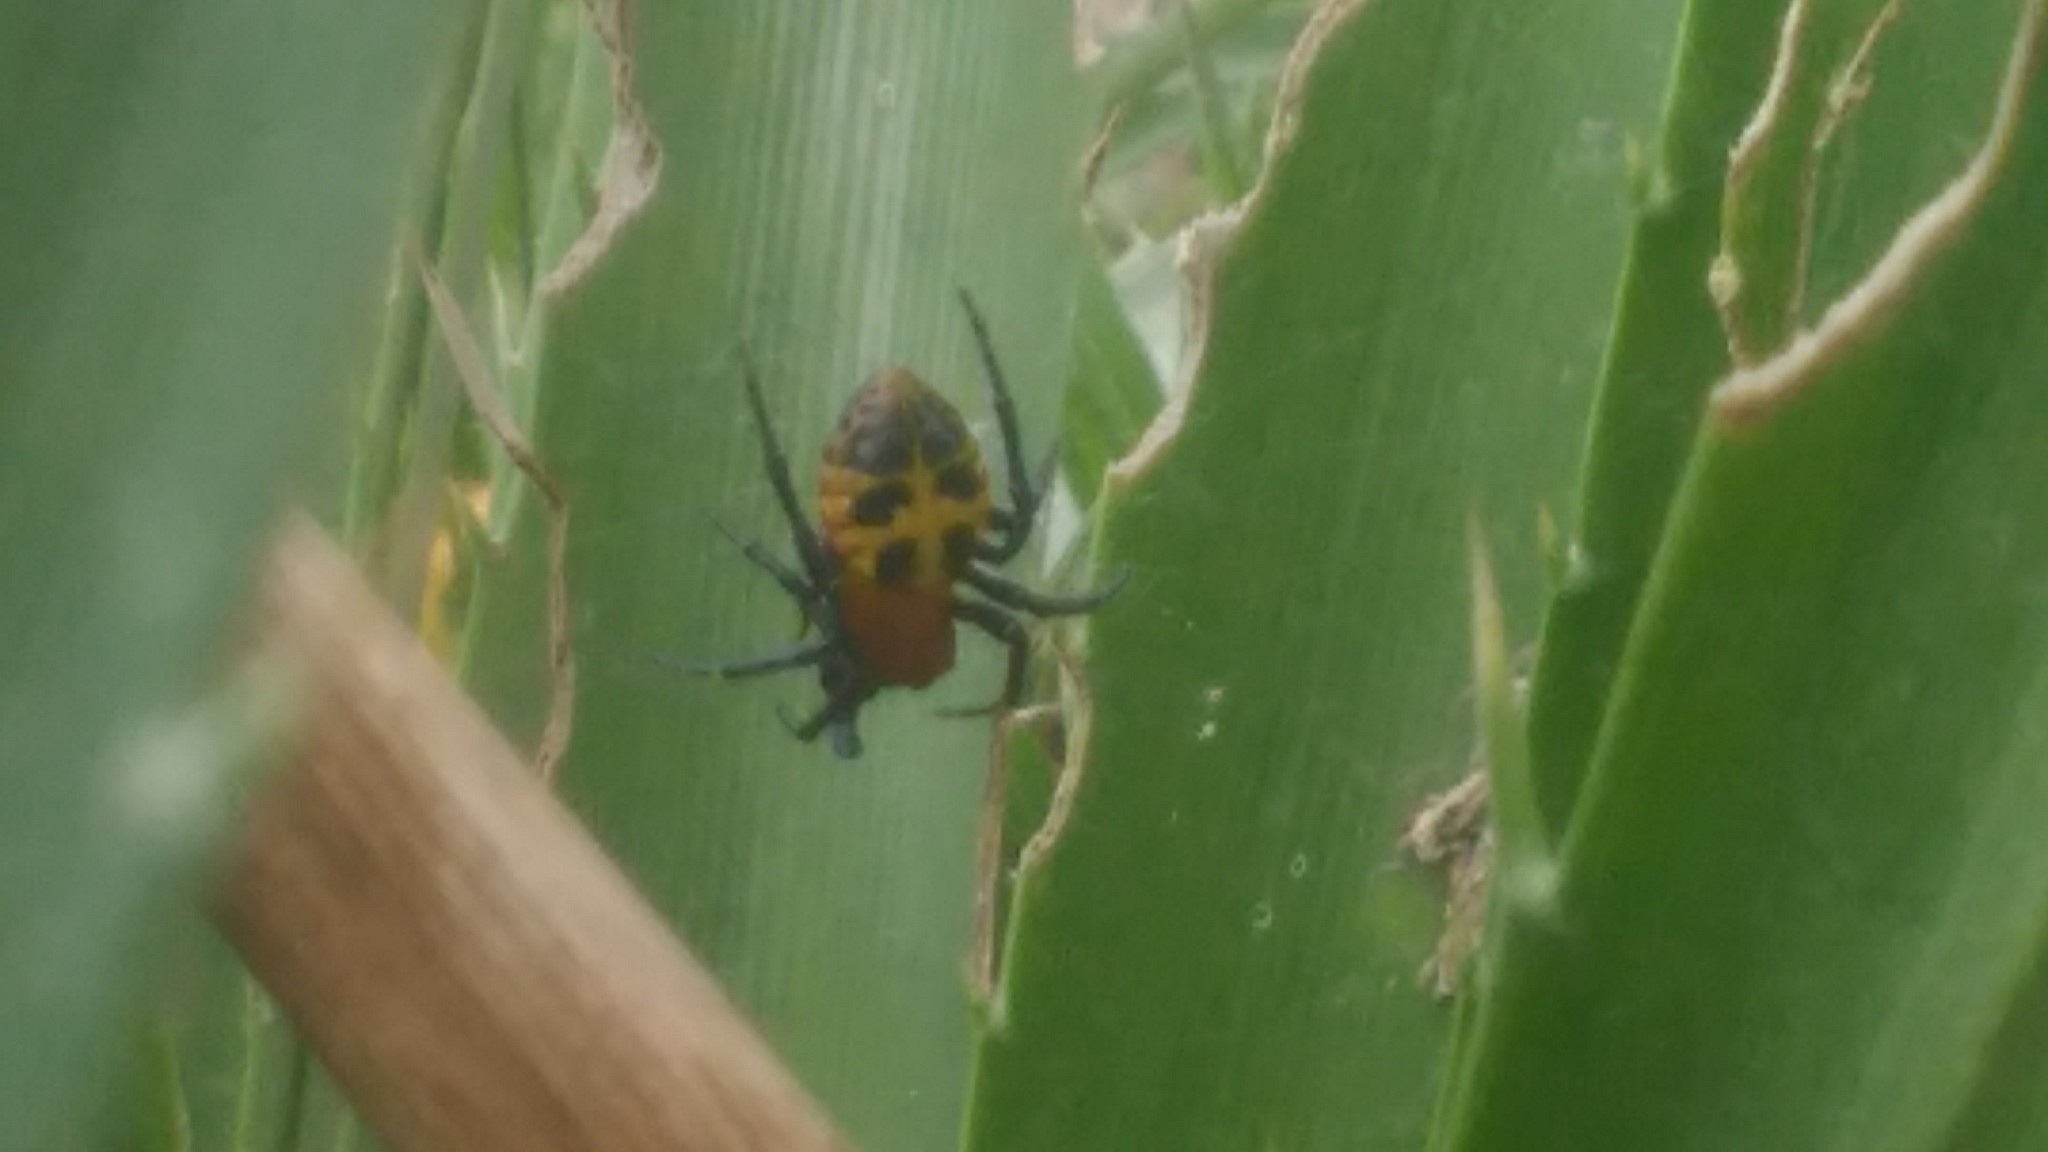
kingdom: Animalia
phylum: Arthropoda
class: Arachnida
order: Araneae
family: Araneidae
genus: Alpaida
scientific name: Alpaida quadrilorata
